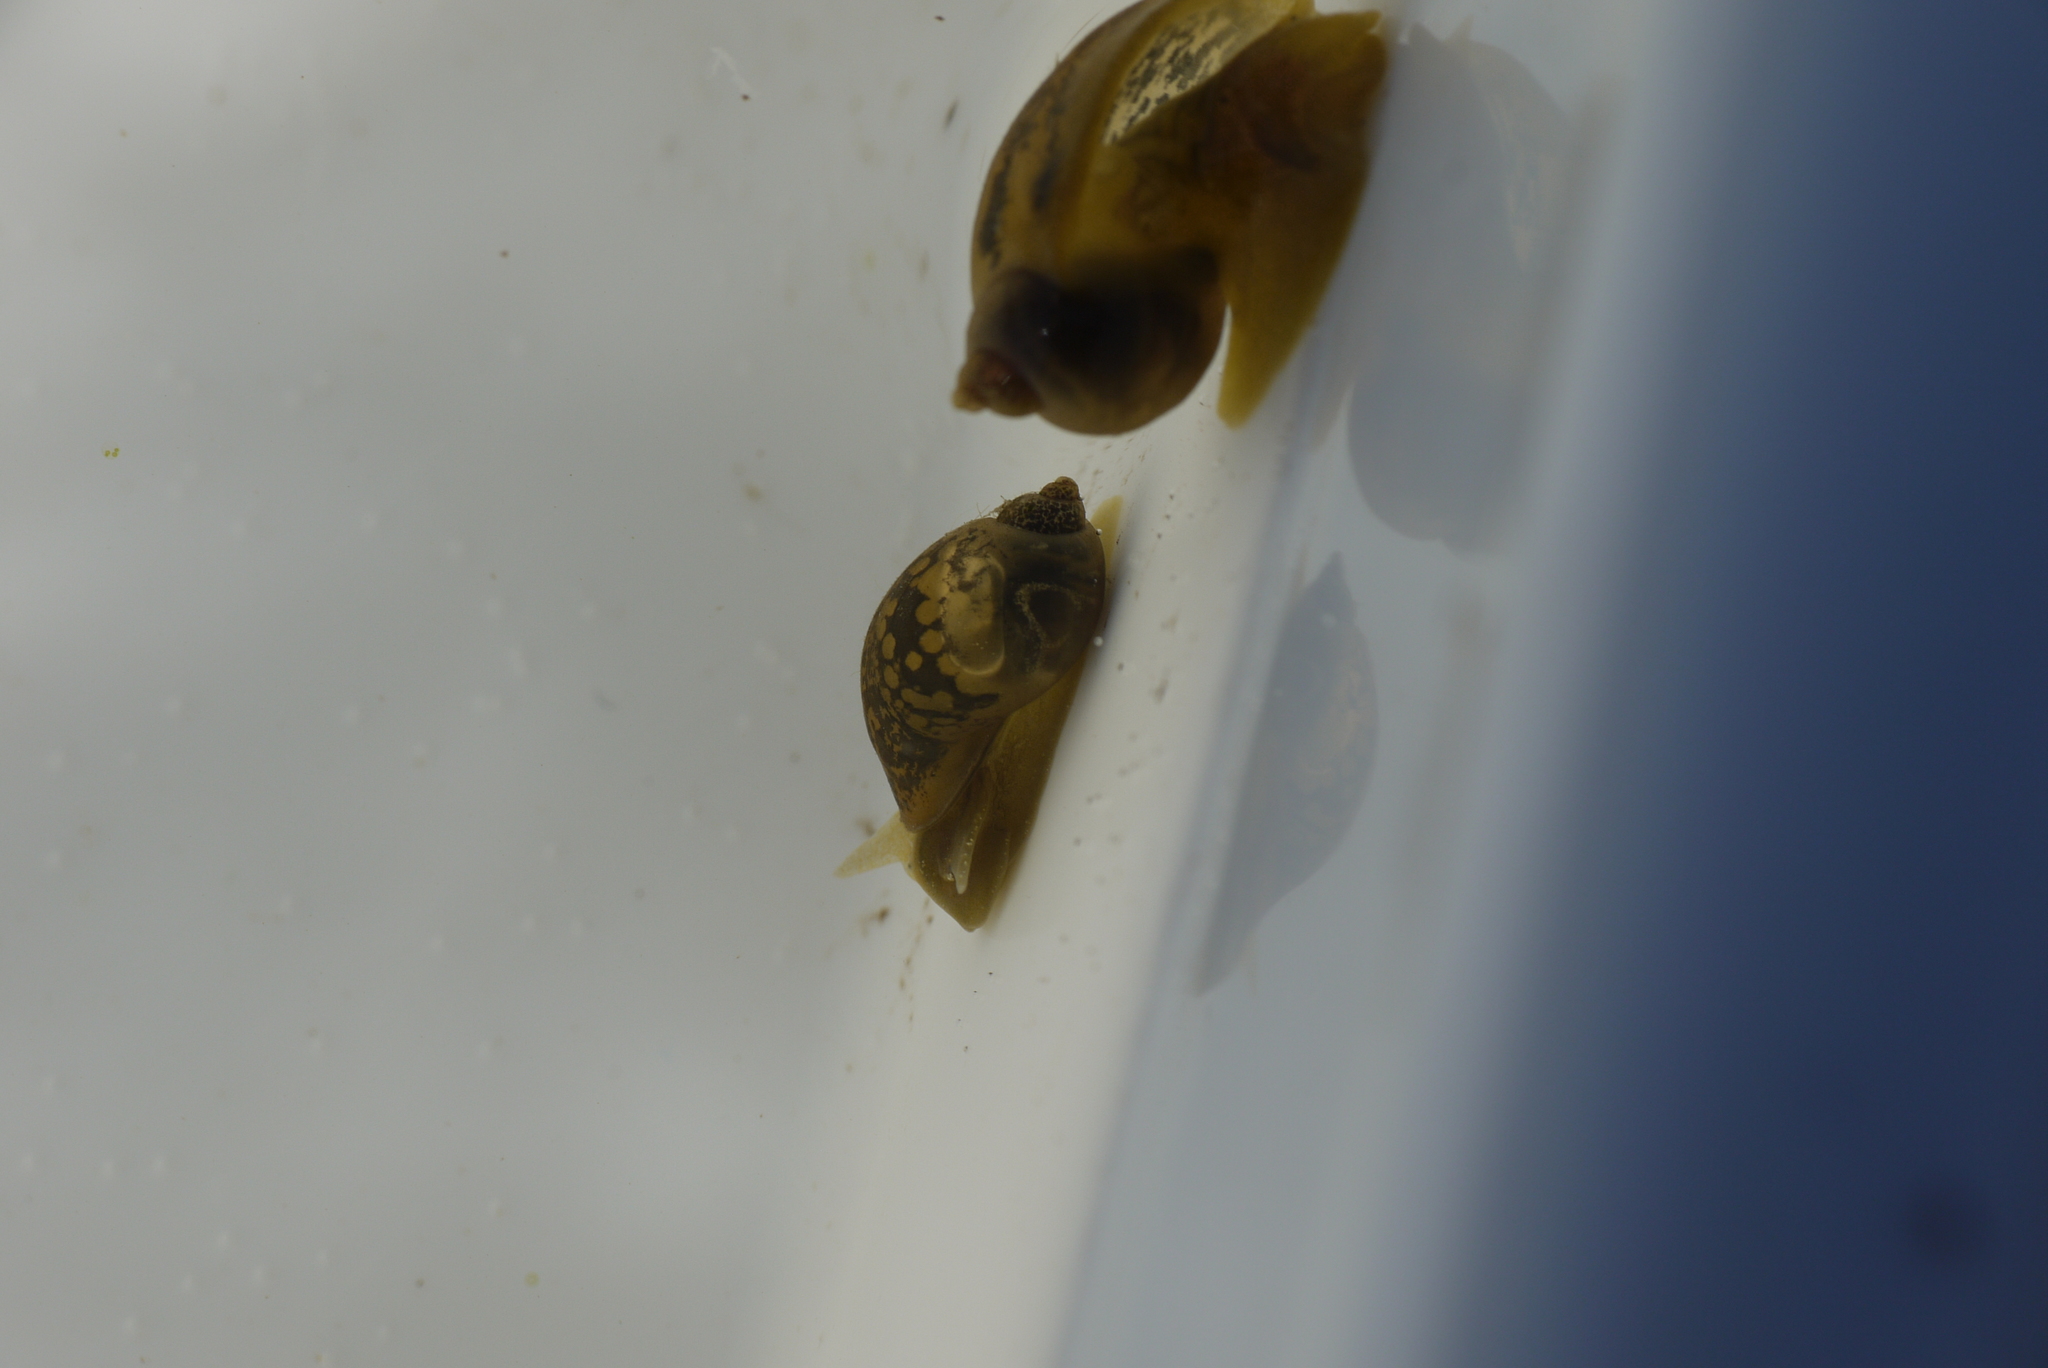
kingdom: Animalia
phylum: Mollusca
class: Gastropoda
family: Lymnaeidae
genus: Ampullaceana
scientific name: Ampullaceana balthica
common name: Wandering pond snail
